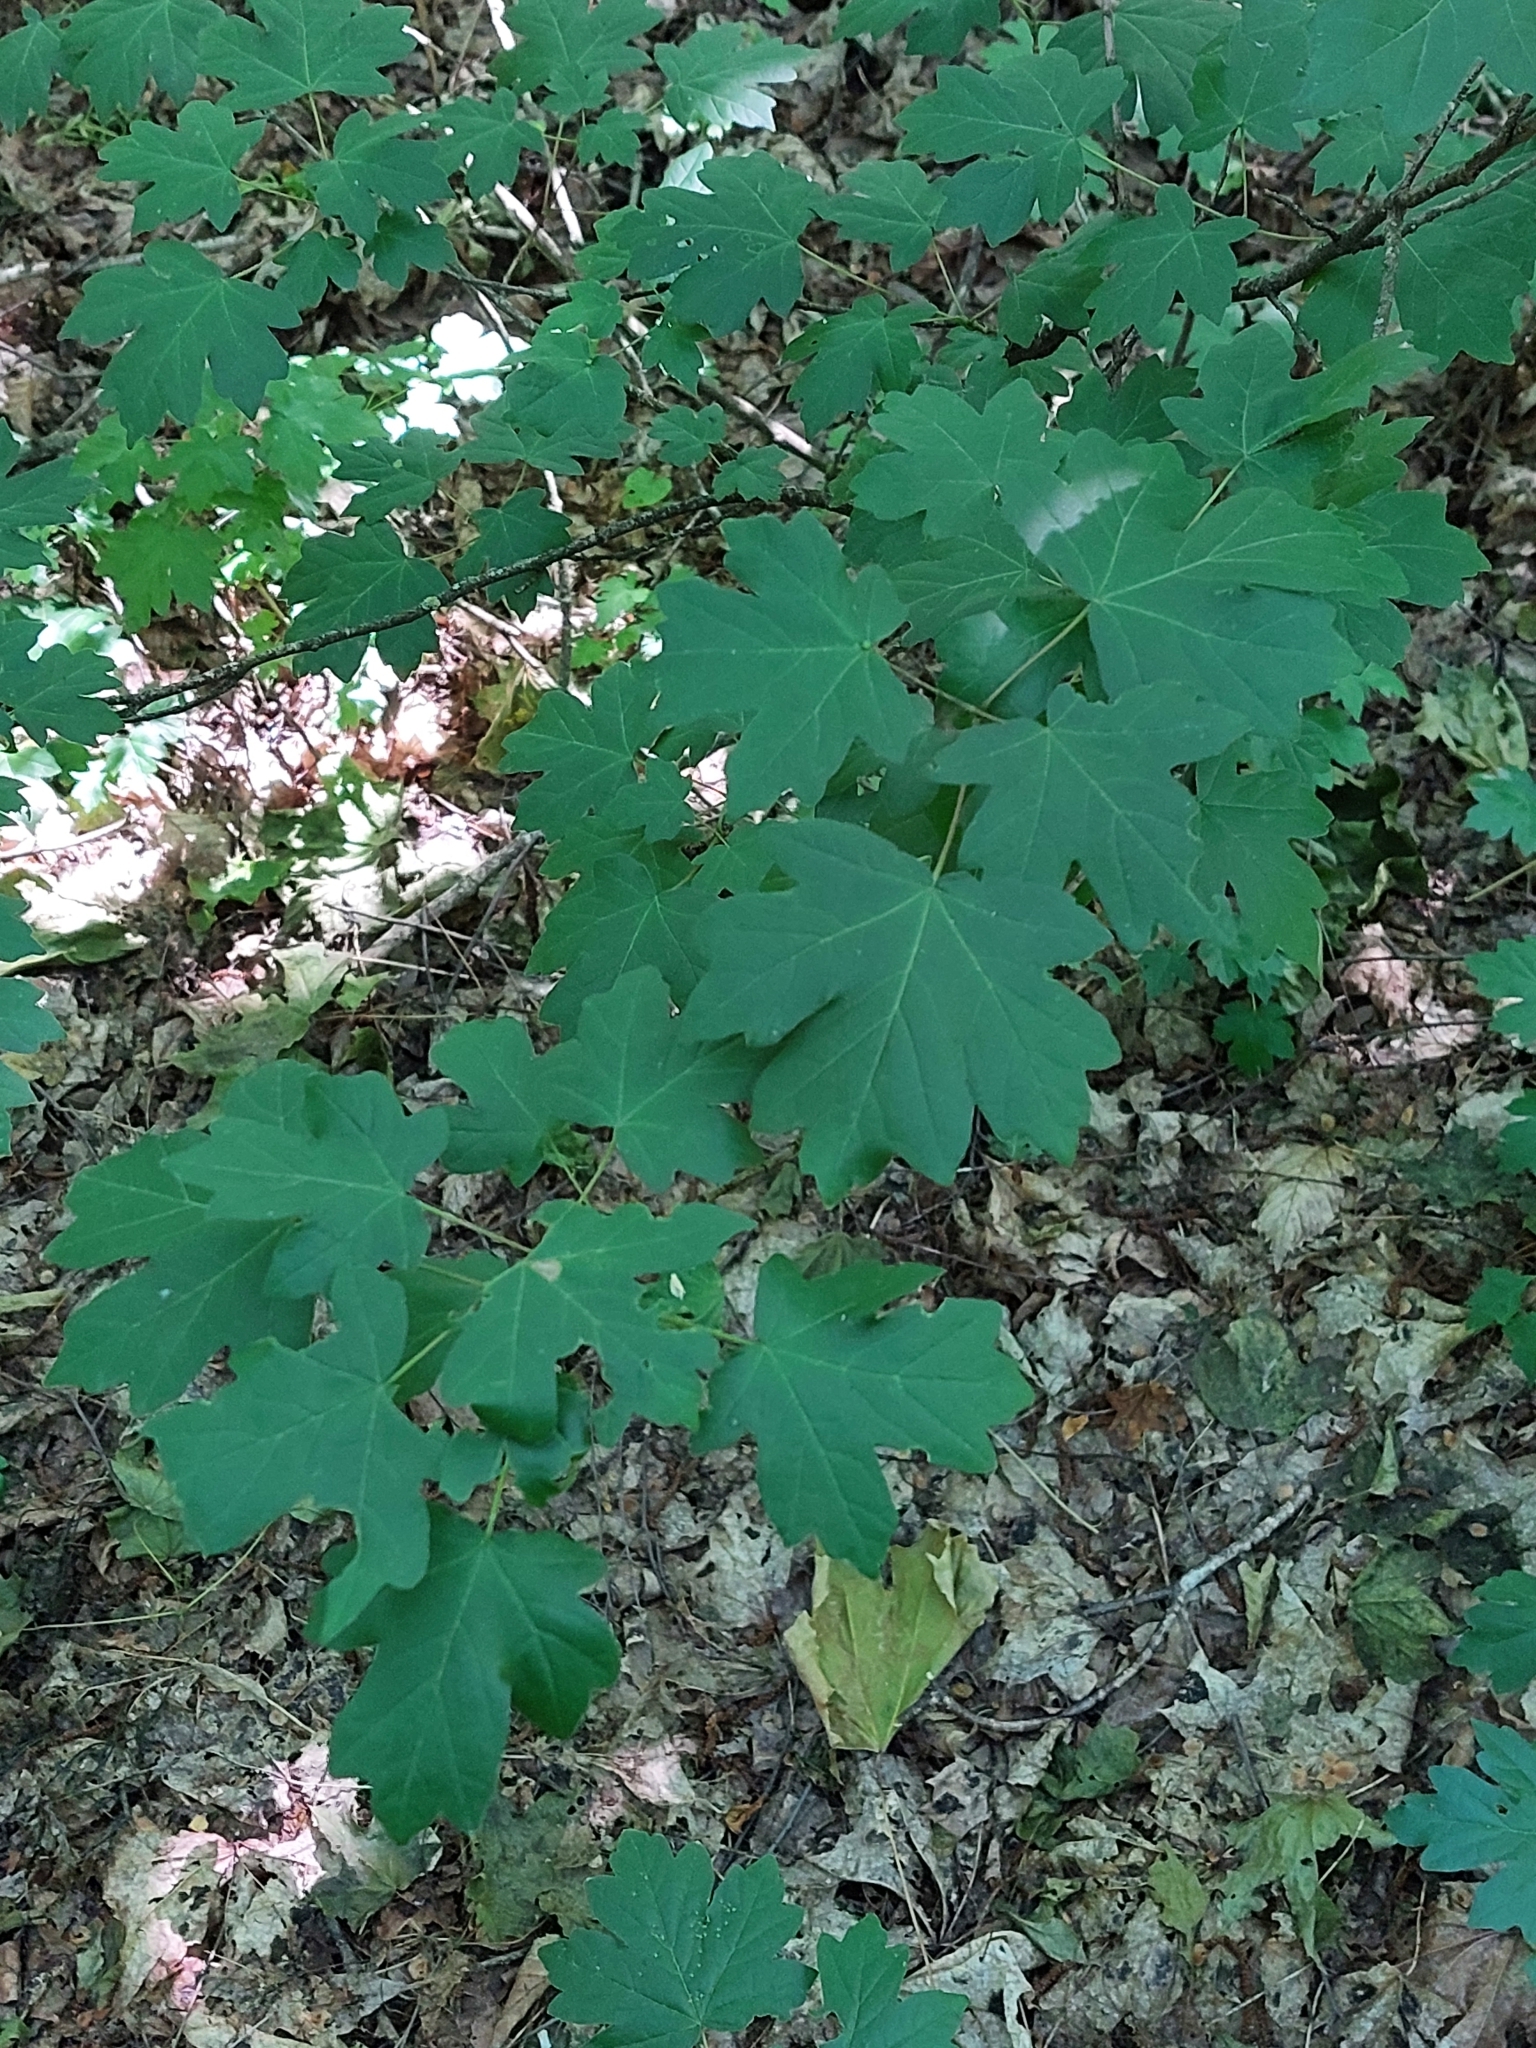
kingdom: Plantae
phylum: Tracheophyta
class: Magnoliopsida
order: Sapindales
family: Sapindaceae
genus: Acer
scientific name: Acer campestre
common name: Field maple
